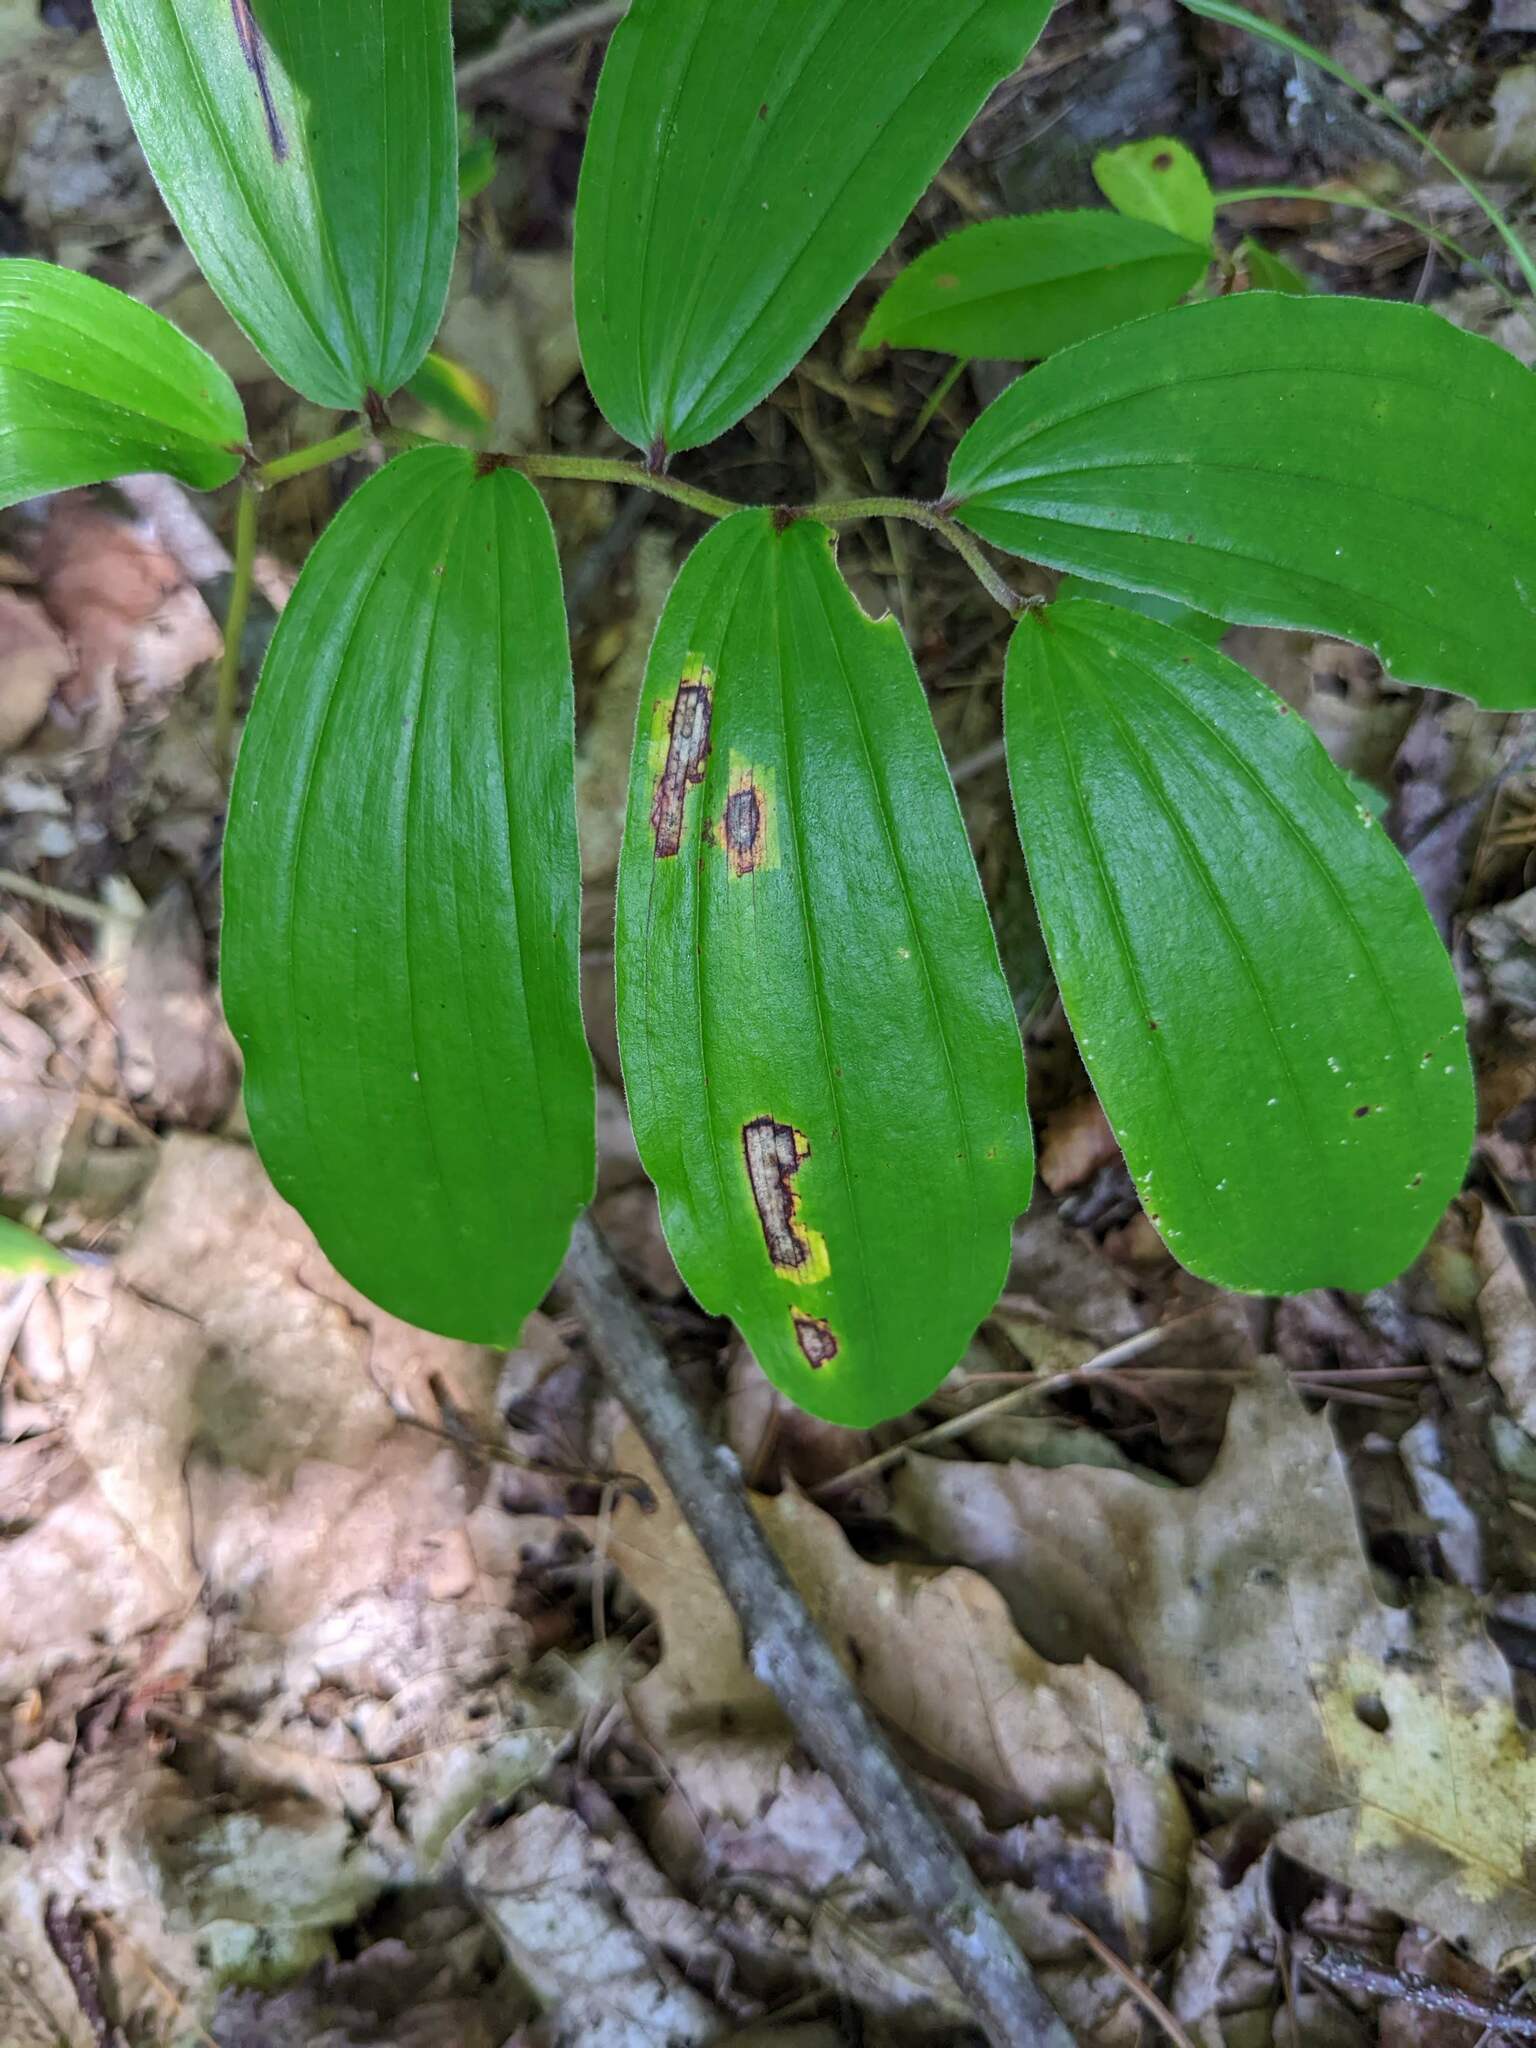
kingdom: Plantae
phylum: Tracheophyta
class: Liliopsida
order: Asparagales
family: Asparagaceae
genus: Maianthemum
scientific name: Maianthemum racemosum
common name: False spikenard
